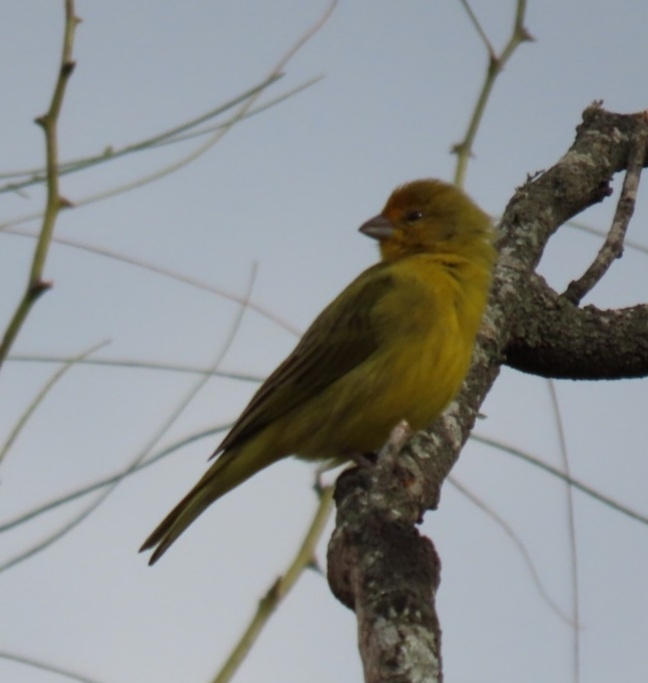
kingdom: Animalia
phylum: Chordata
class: Aves
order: Passeriformes
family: Thraupidae
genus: Sicalis
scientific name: Sicalis flaveola
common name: Saffron finch
